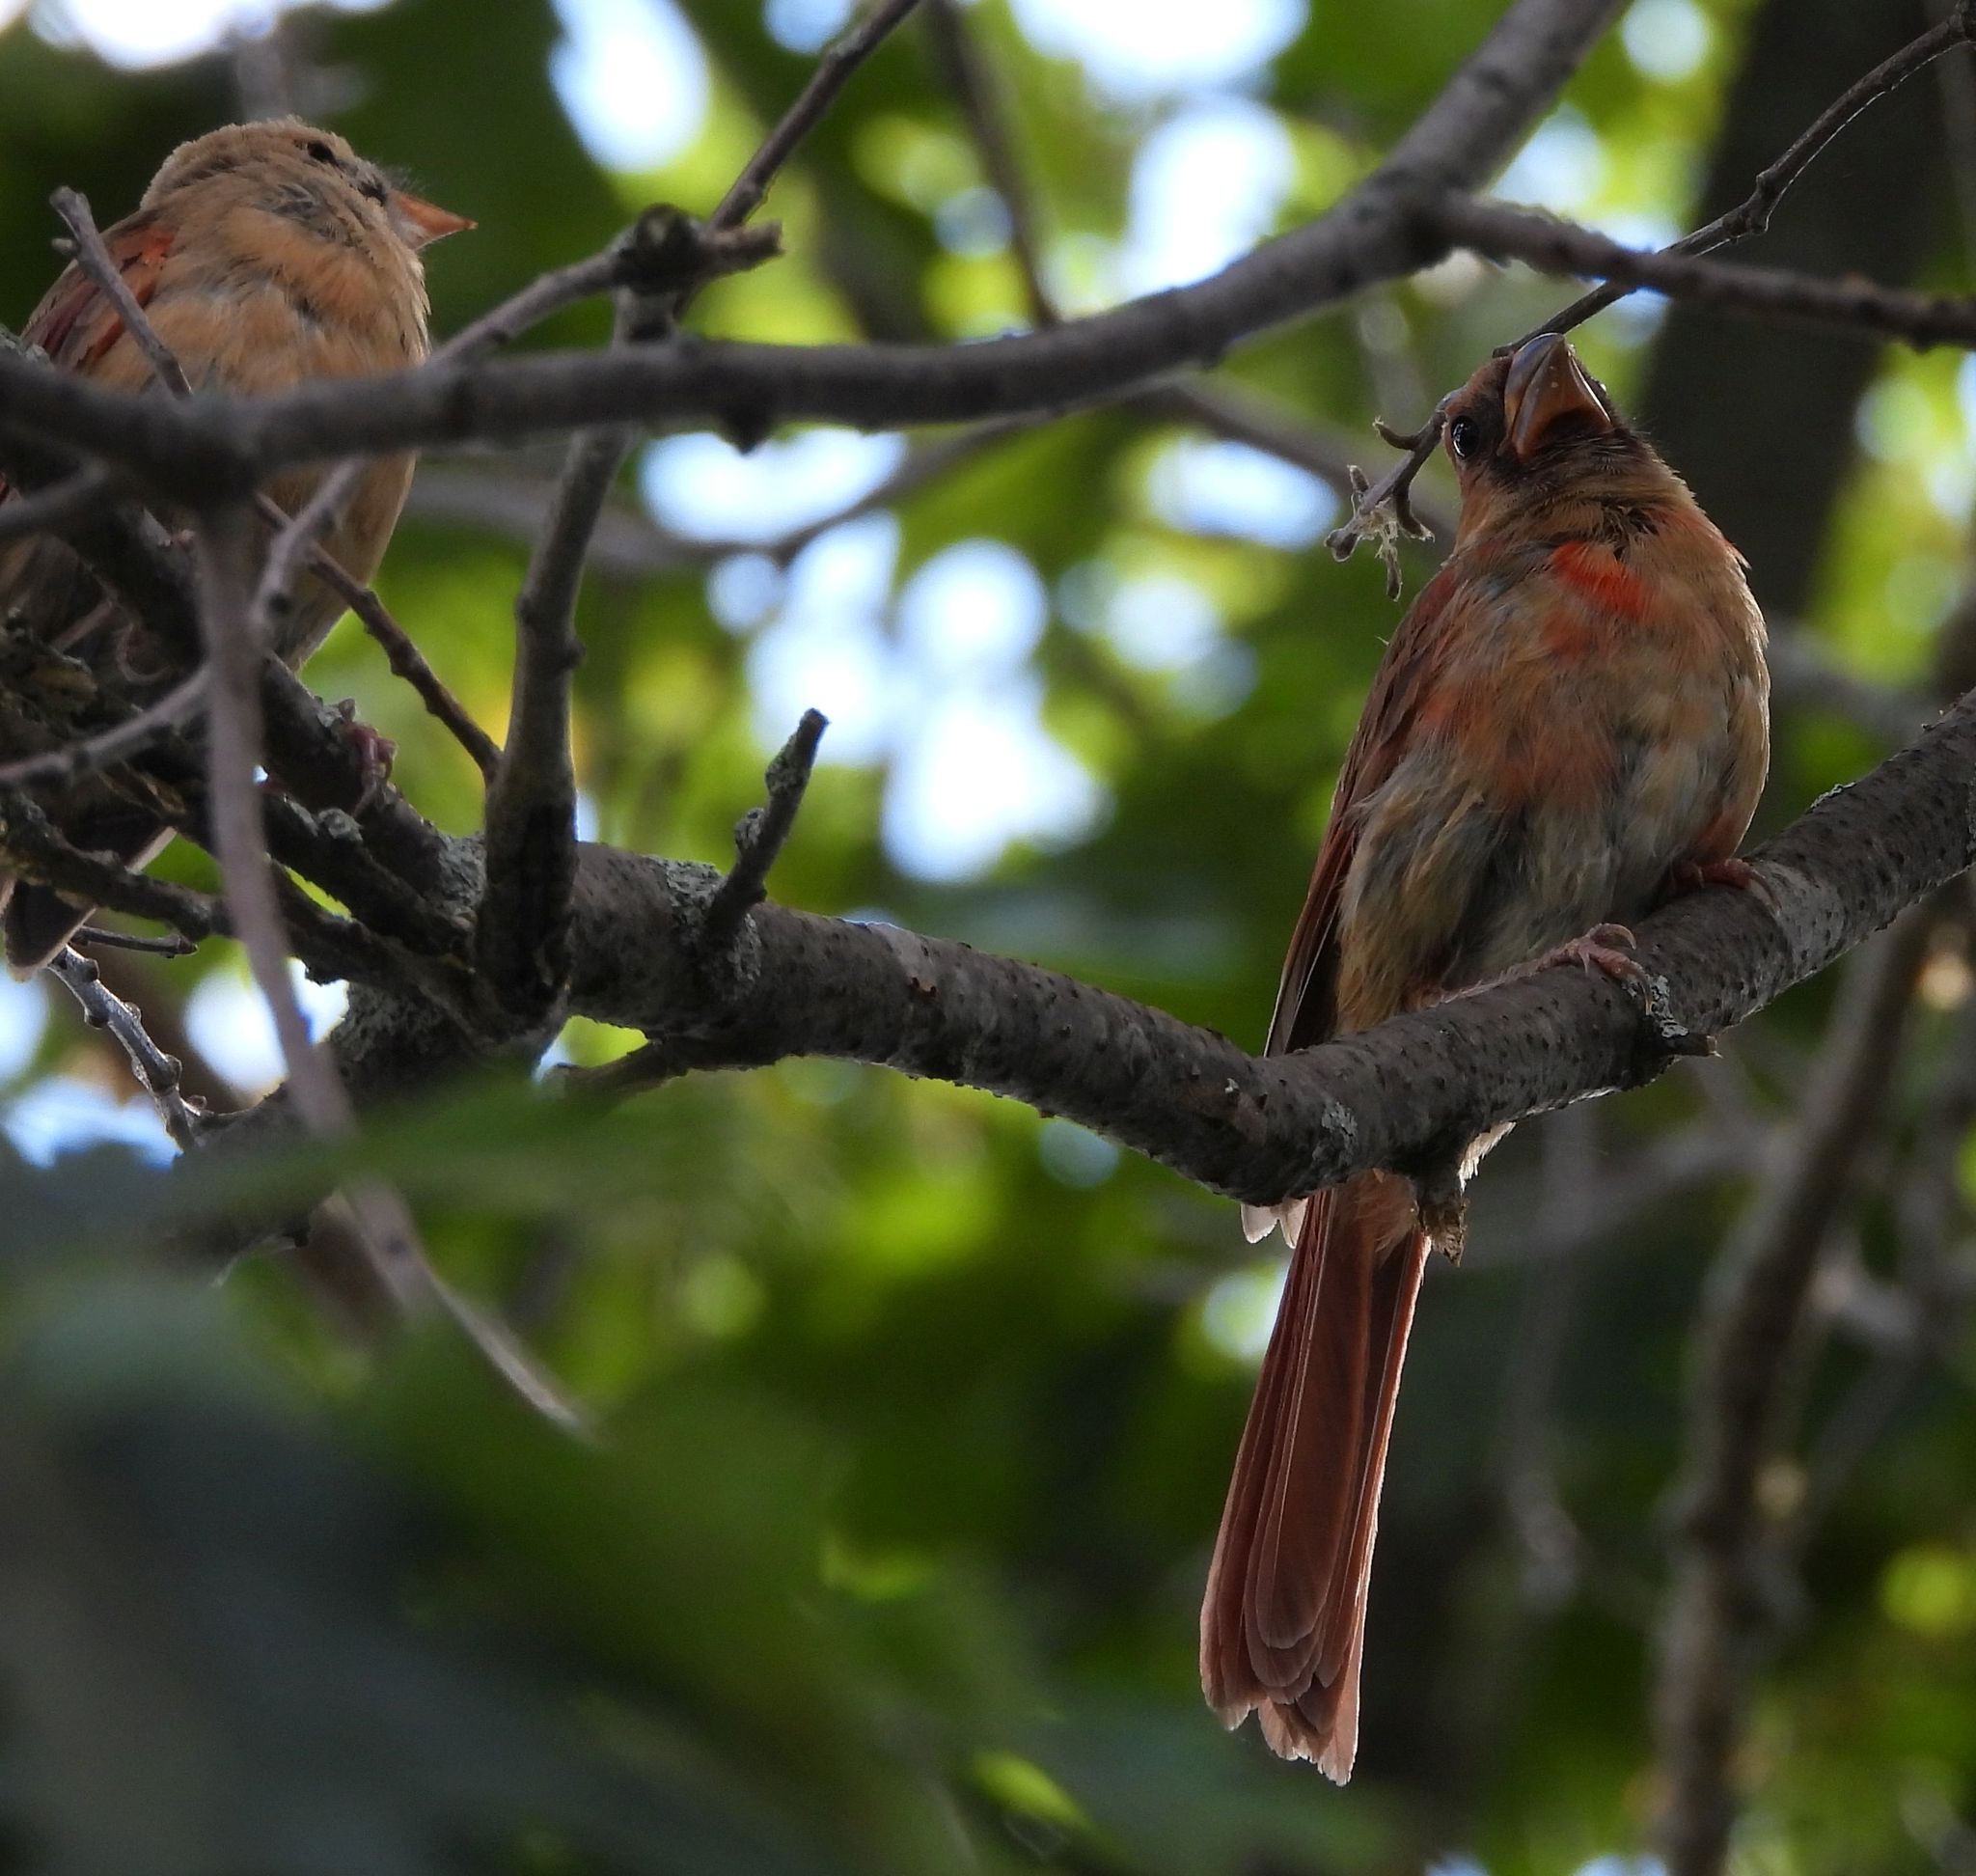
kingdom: Animalia
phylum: Chordata
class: Aves
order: Passeriformes
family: Cardinalidae
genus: Cardinalis
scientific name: Cardinalis cardinalis
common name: Northern cardinal
